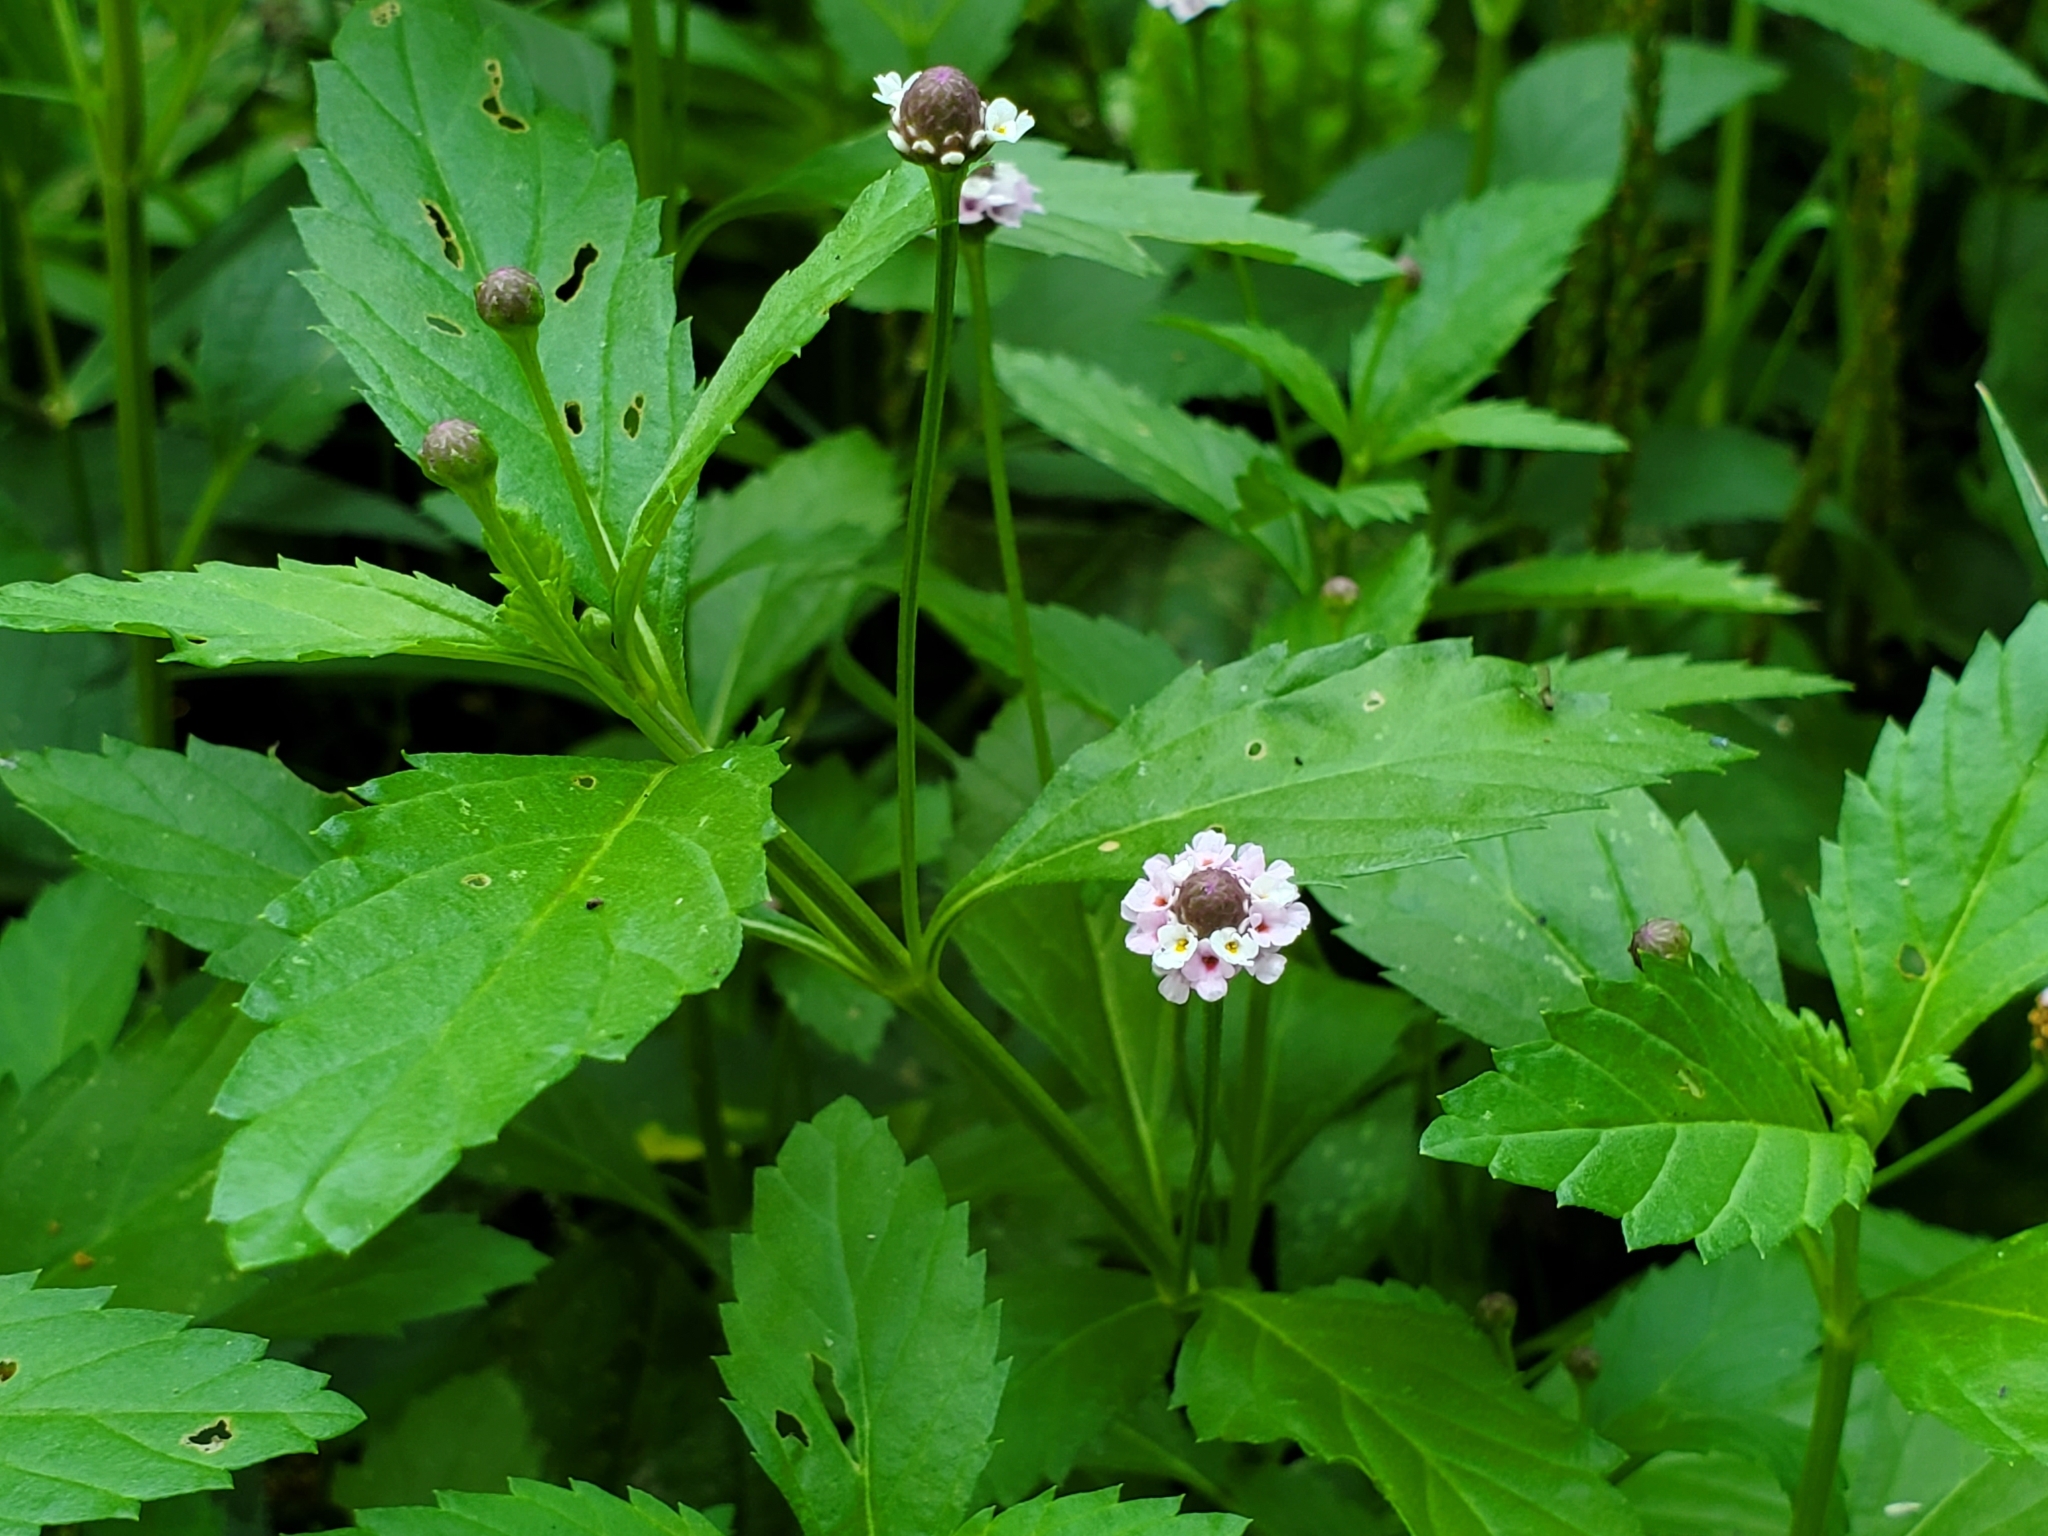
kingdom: Plantae
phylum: Tracheophyta
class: Magnoliopsida
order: Lamiales
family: Verbenaceae
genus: Phyla
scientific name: Phyla lanceolata
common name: Northern fogfruit
